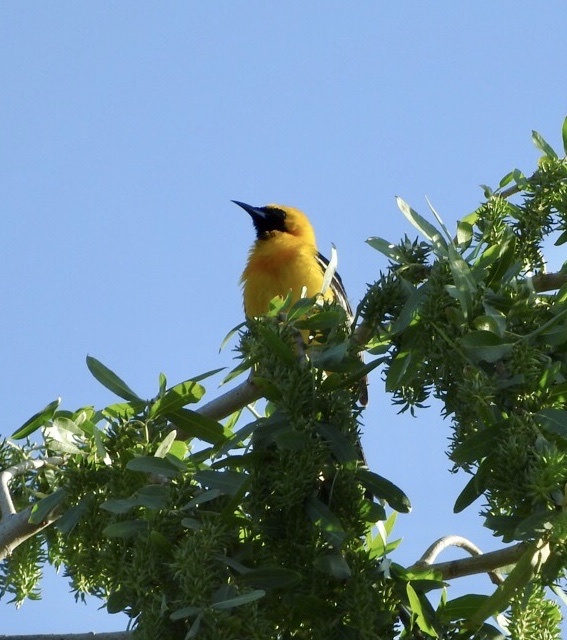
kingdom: Animalia
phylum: Chordata
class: Aves
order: Passeriformes
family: Icteridae
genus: Icterus
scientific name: Icterus cucullatus
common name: Hooded oriole
